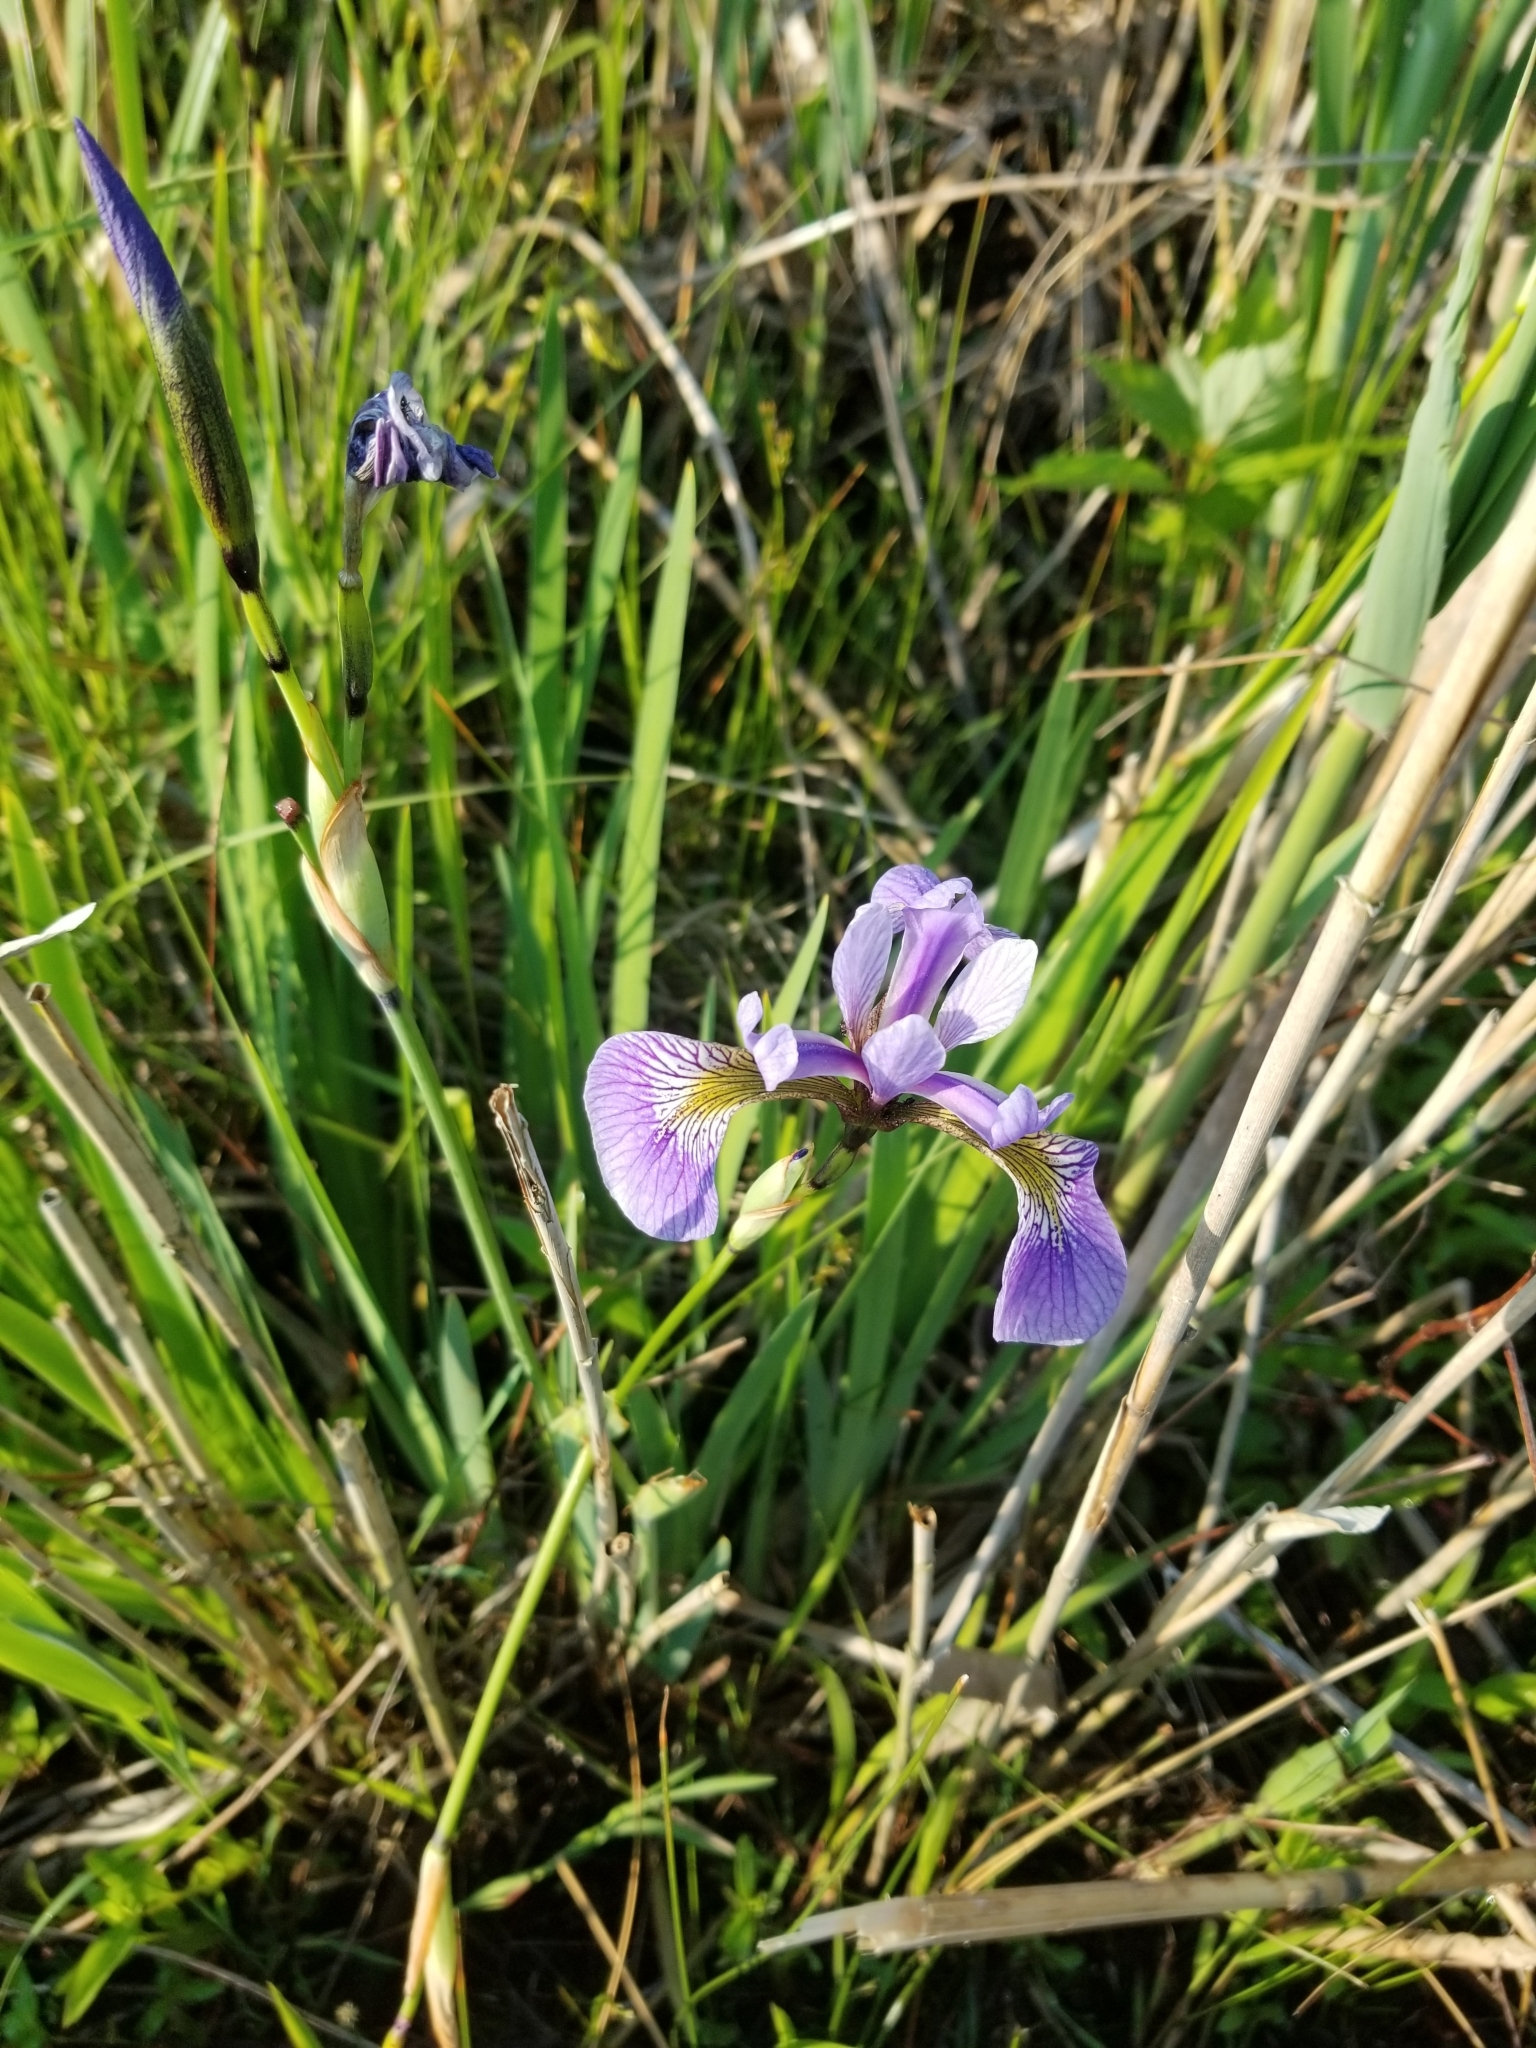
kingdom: Plantae
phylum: Tracheophyta
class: Liliopsida
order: Asparagales
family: Iridaceae
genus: Iris
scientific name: Iris versicolor
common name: Purple iris
